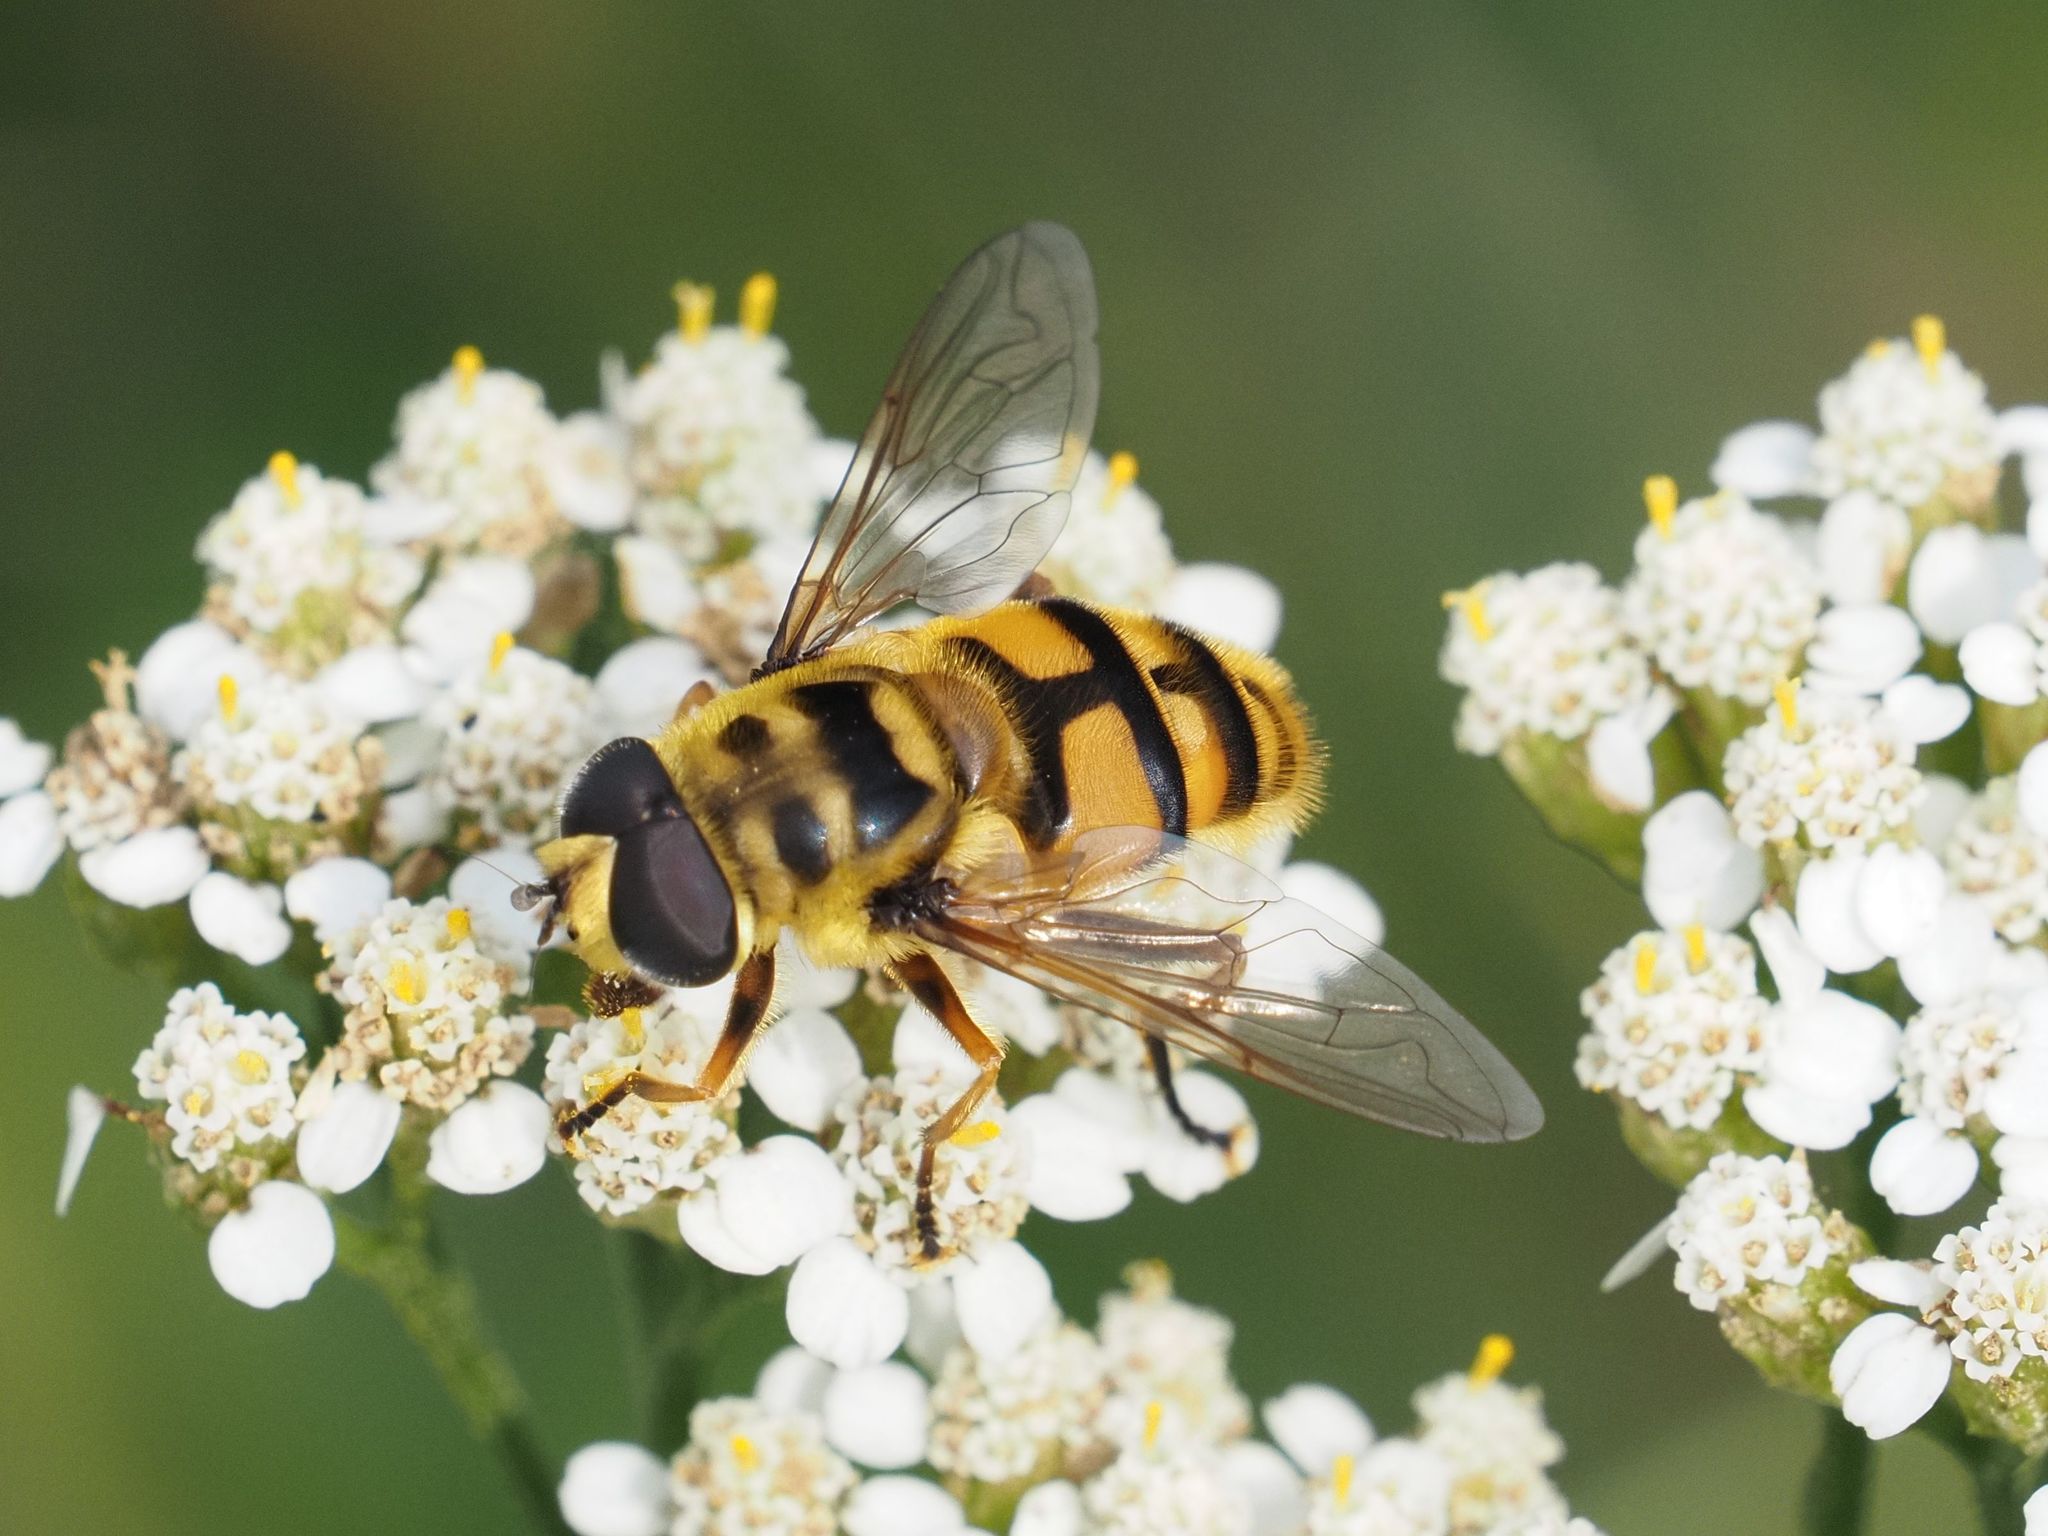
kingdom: Animalia
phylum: Arthropoda
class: Insecta
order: Diptera
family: Syrphidae
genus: Myathropa
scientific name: Myathropa florea
